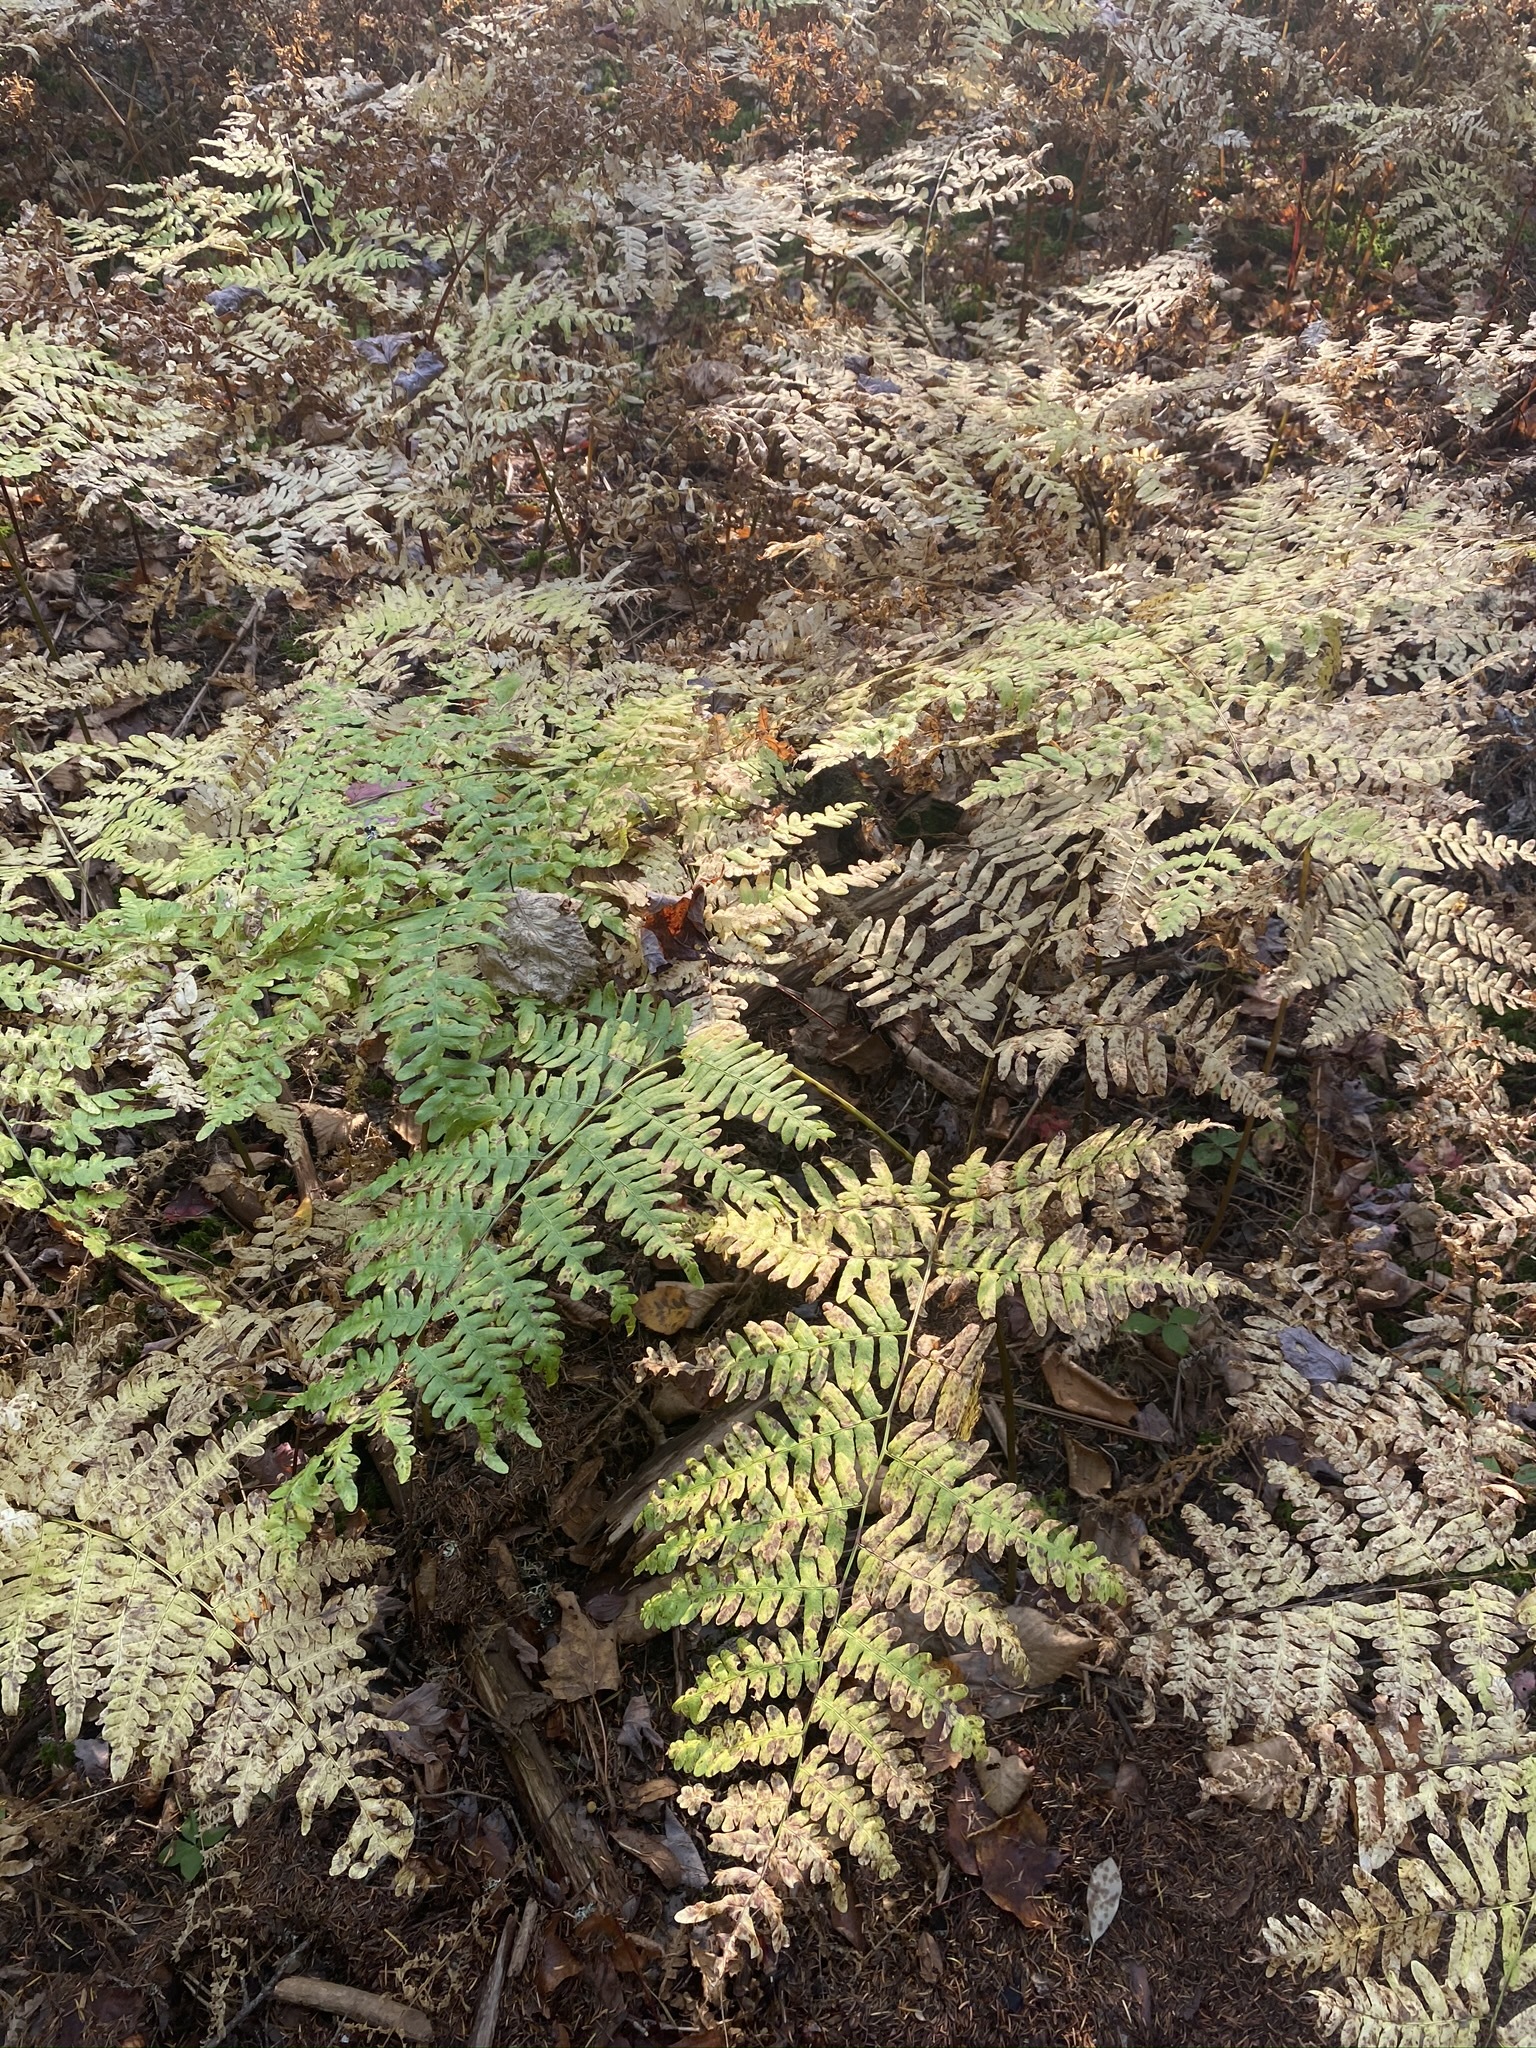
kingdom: Plantae
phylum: Tracheophyta
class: Polypodiopsida
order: Polypodiales
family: Dennstaedtiaceae
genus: Pteridium
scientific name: Pteridium aquilinum
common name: Bracken
